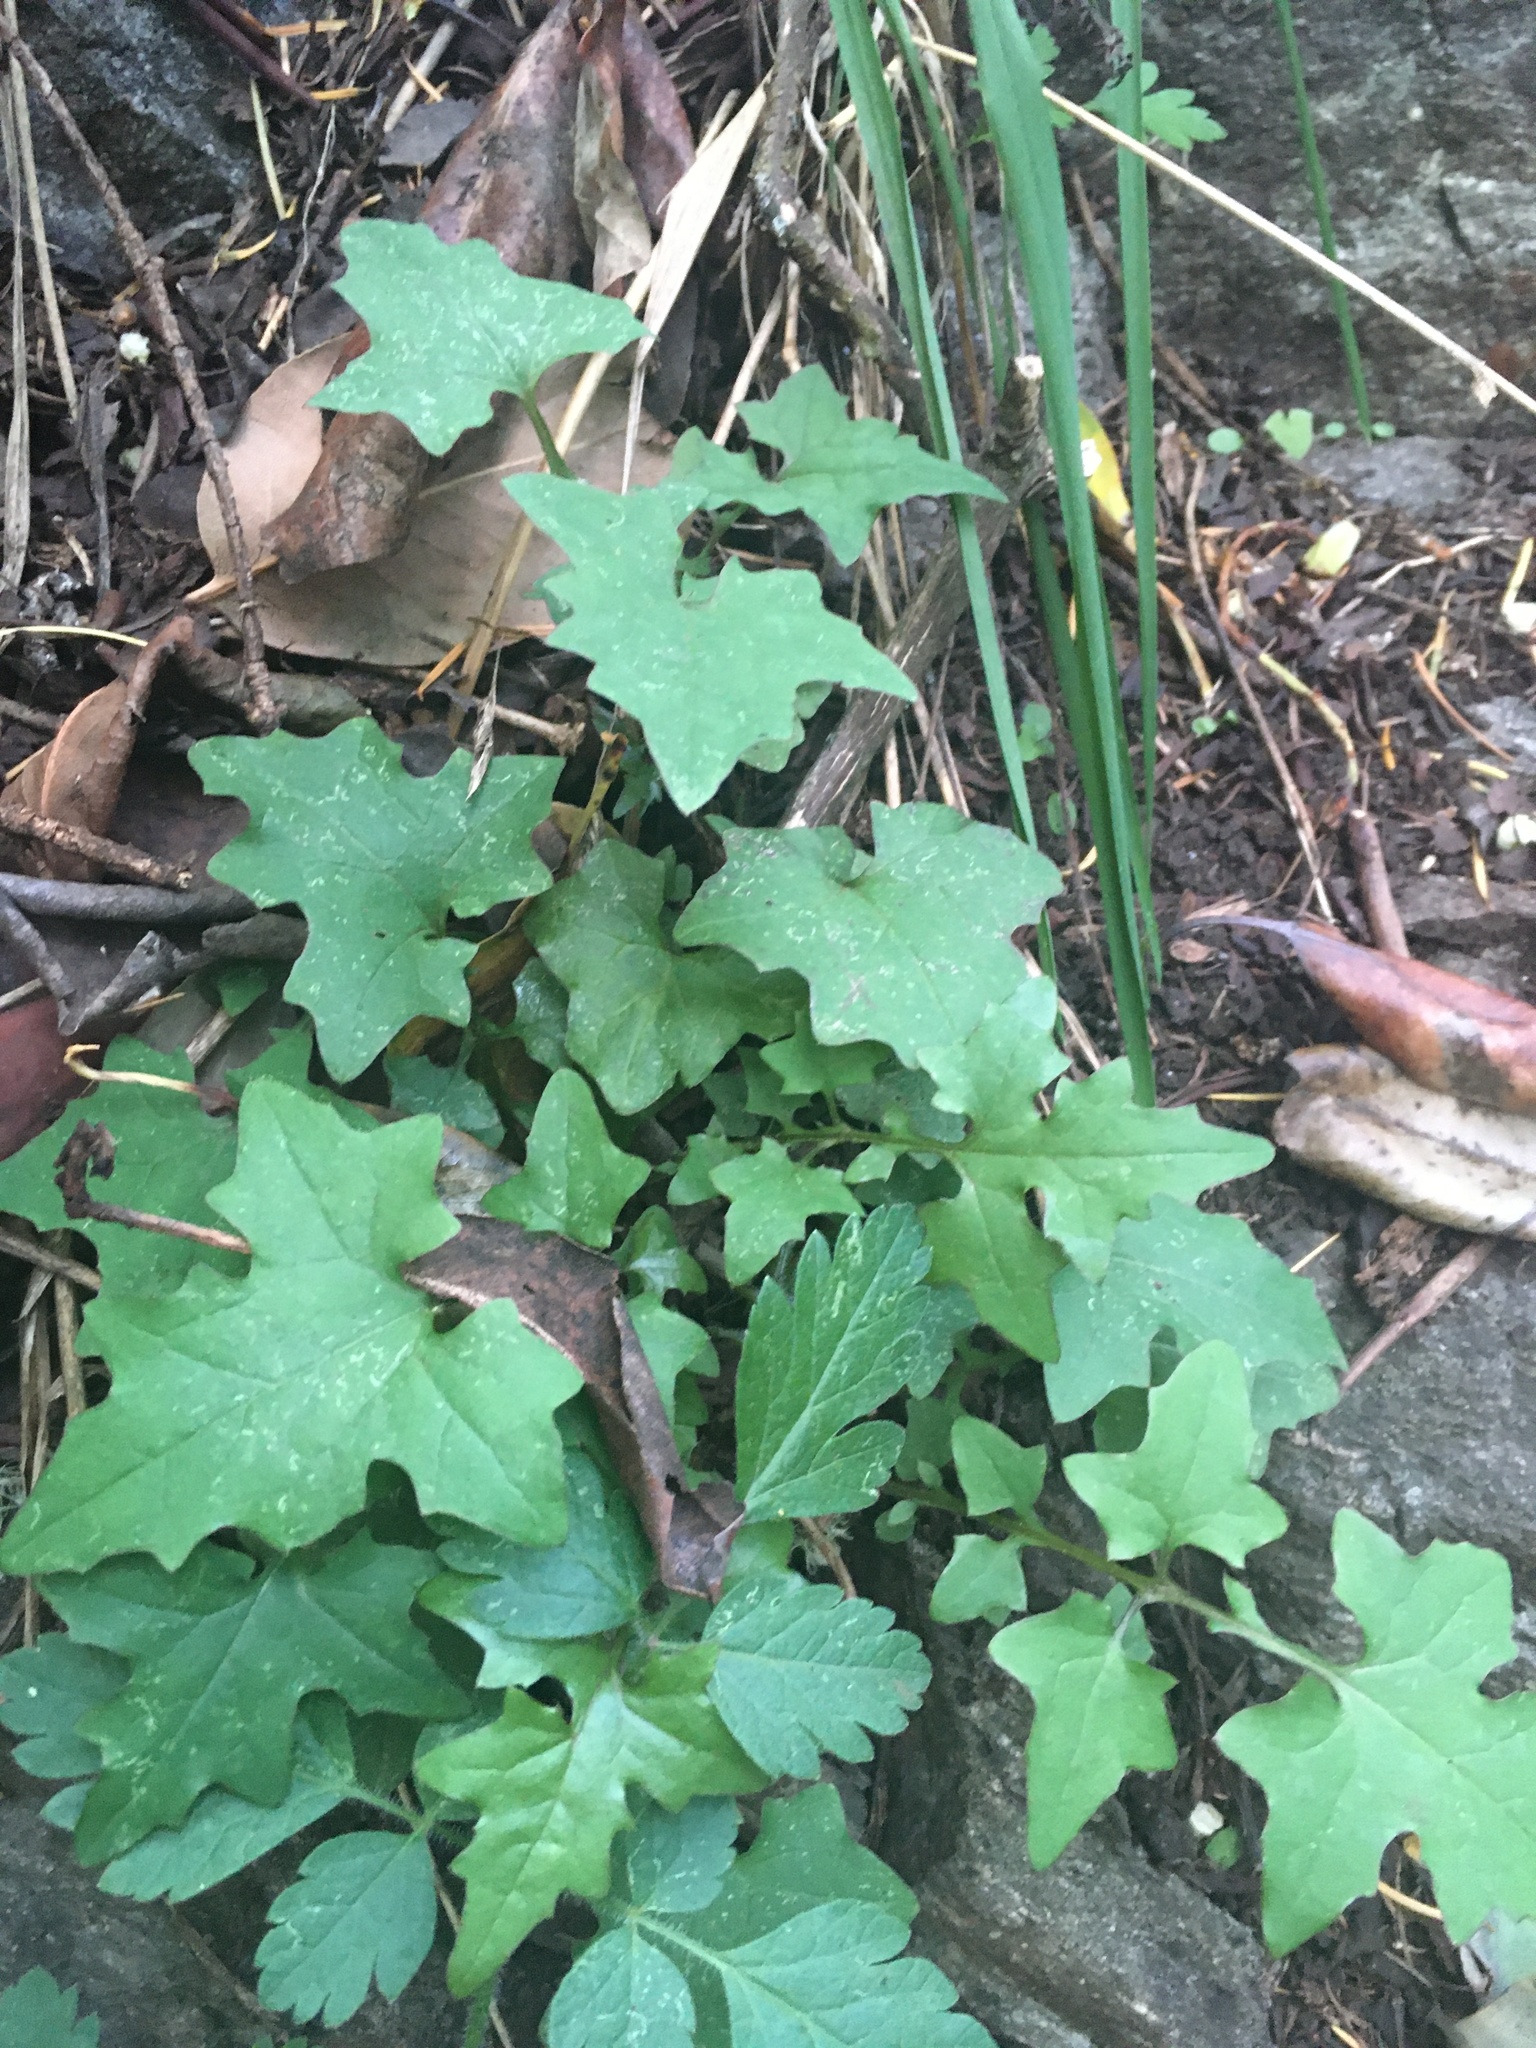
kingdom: Plantae
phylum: Tracheophyta
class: Magnoliopsida
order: Asterales
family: Asteraceae
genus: Mycelis
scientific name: Mycelis muralis
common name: Wall lettuce
